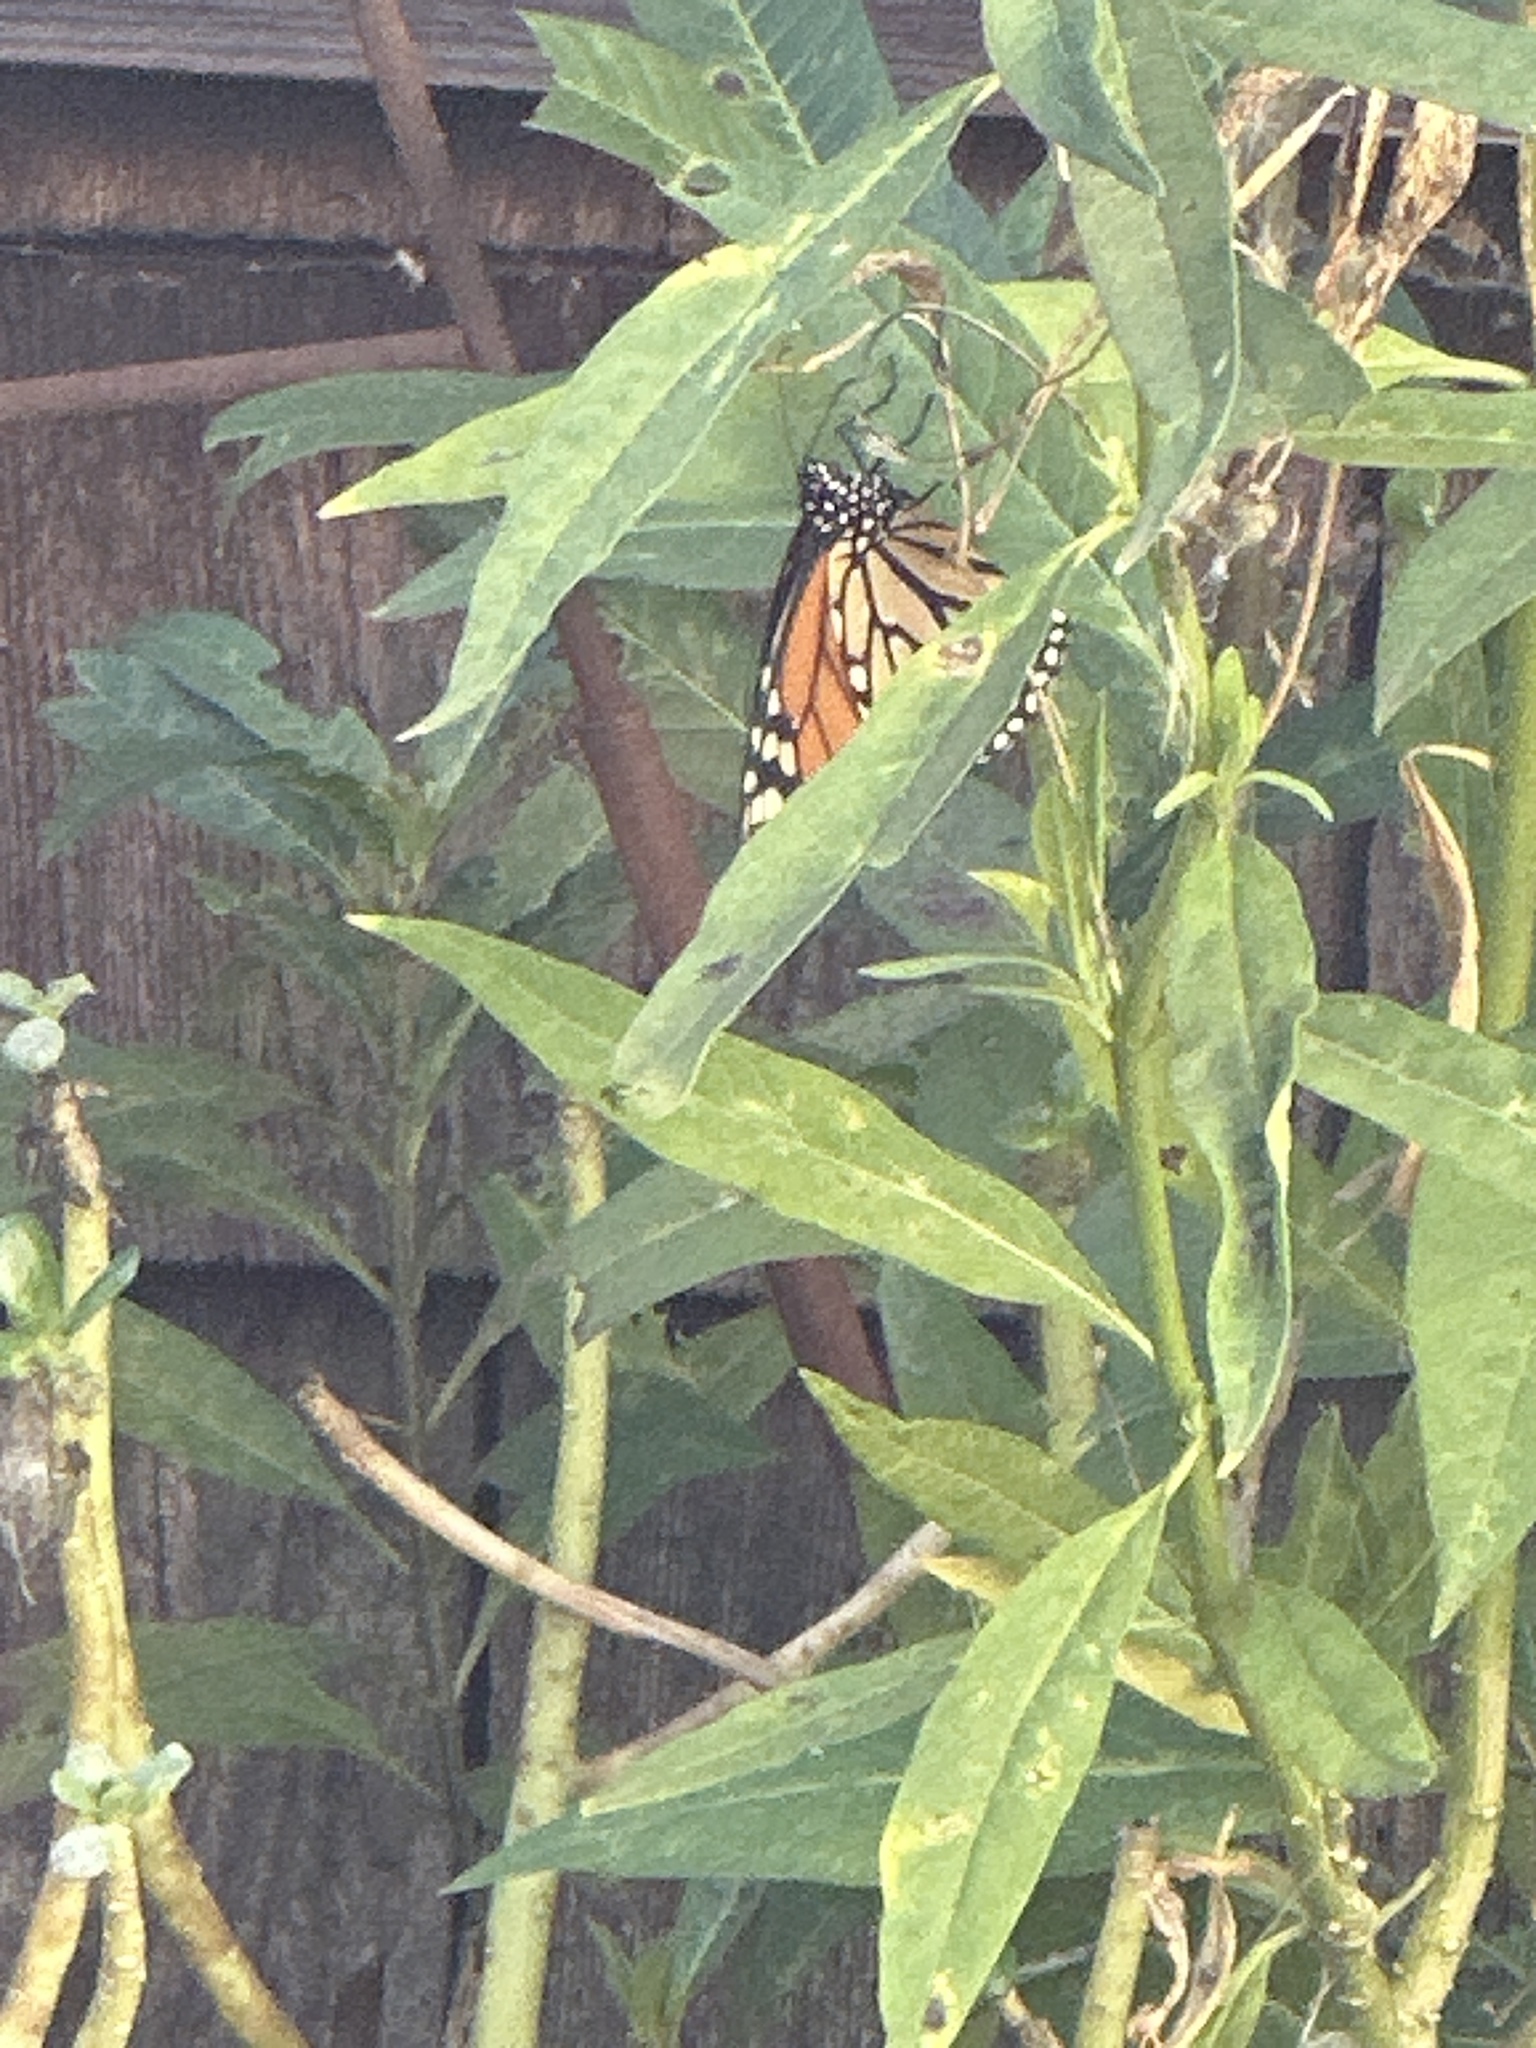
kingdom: Animalia
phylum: Arthropoda
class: Insecta
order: Lepidoptera
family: Nymphalidae
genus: Danaus
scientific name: Danaus plexippus
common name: Monarch
